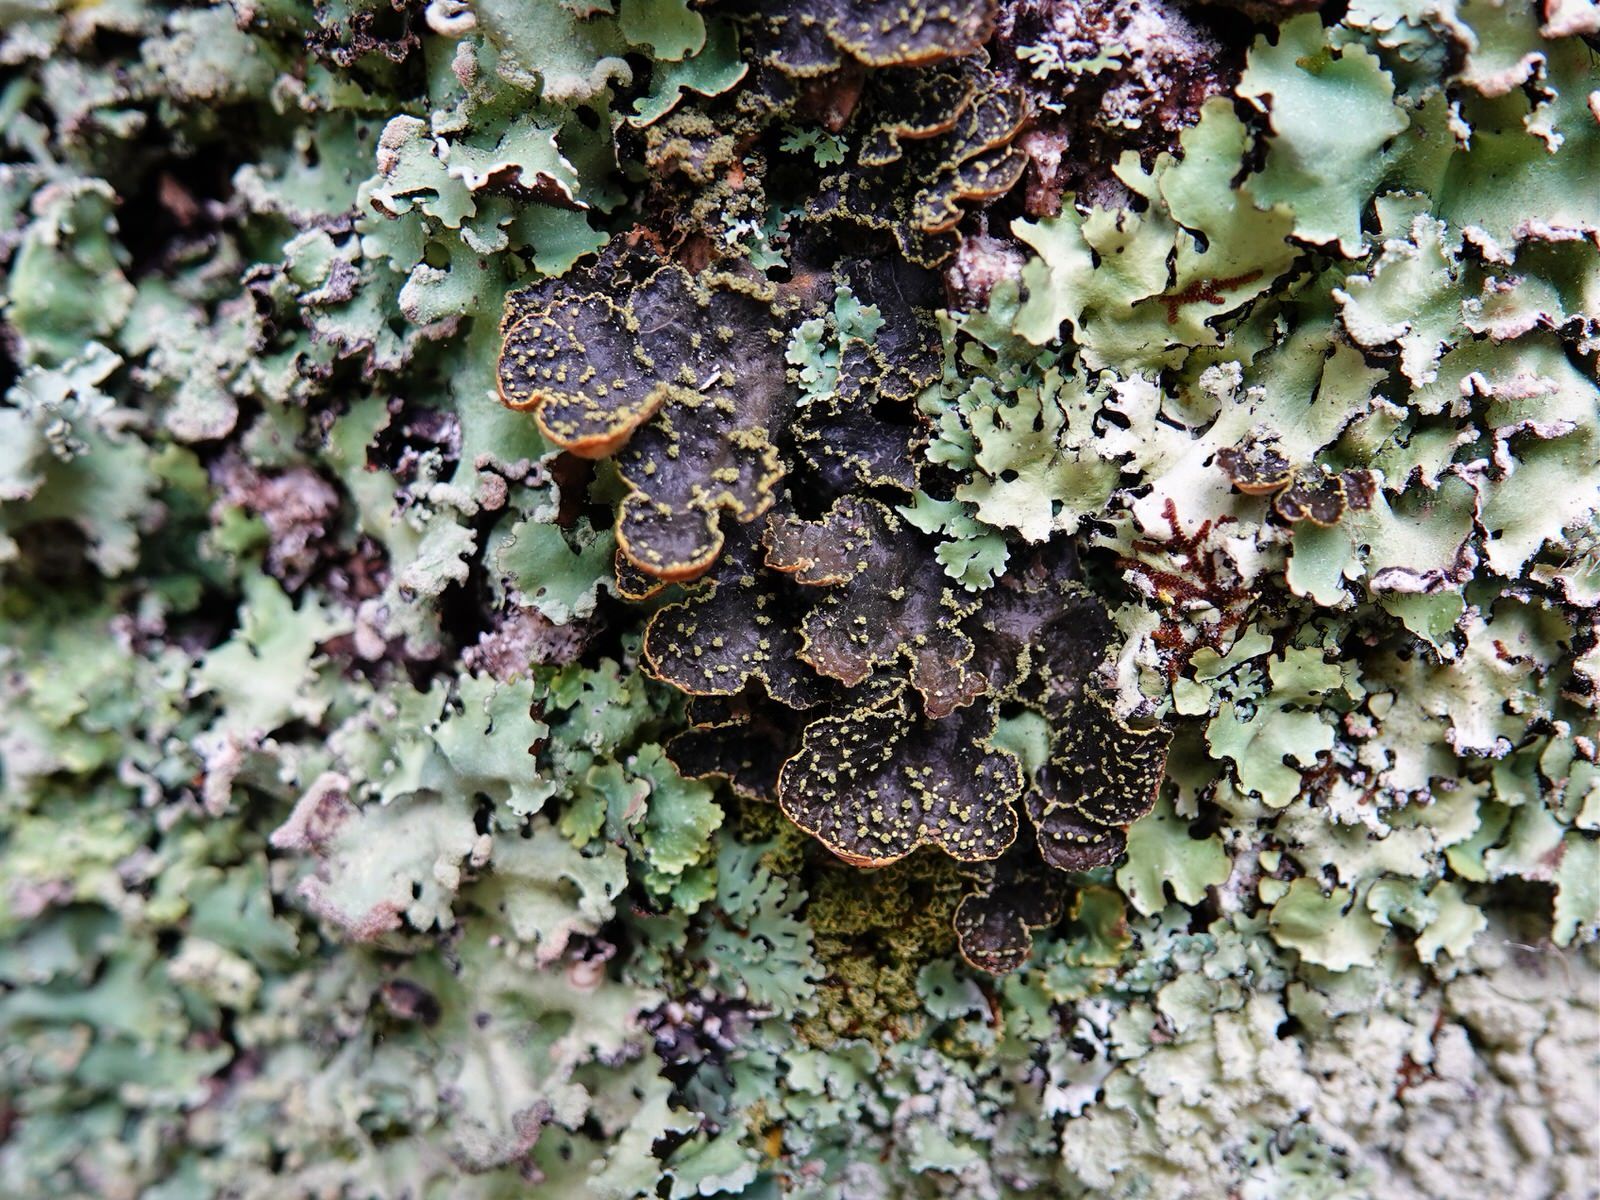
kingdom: Fungi
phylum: Ascomycota
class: Lecanoromycetes
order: Peltigerales
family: Lobariaceae
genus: Pseudocyphellaria
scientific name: Pseudocyphellaria crocata
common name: Golden specklebelly
